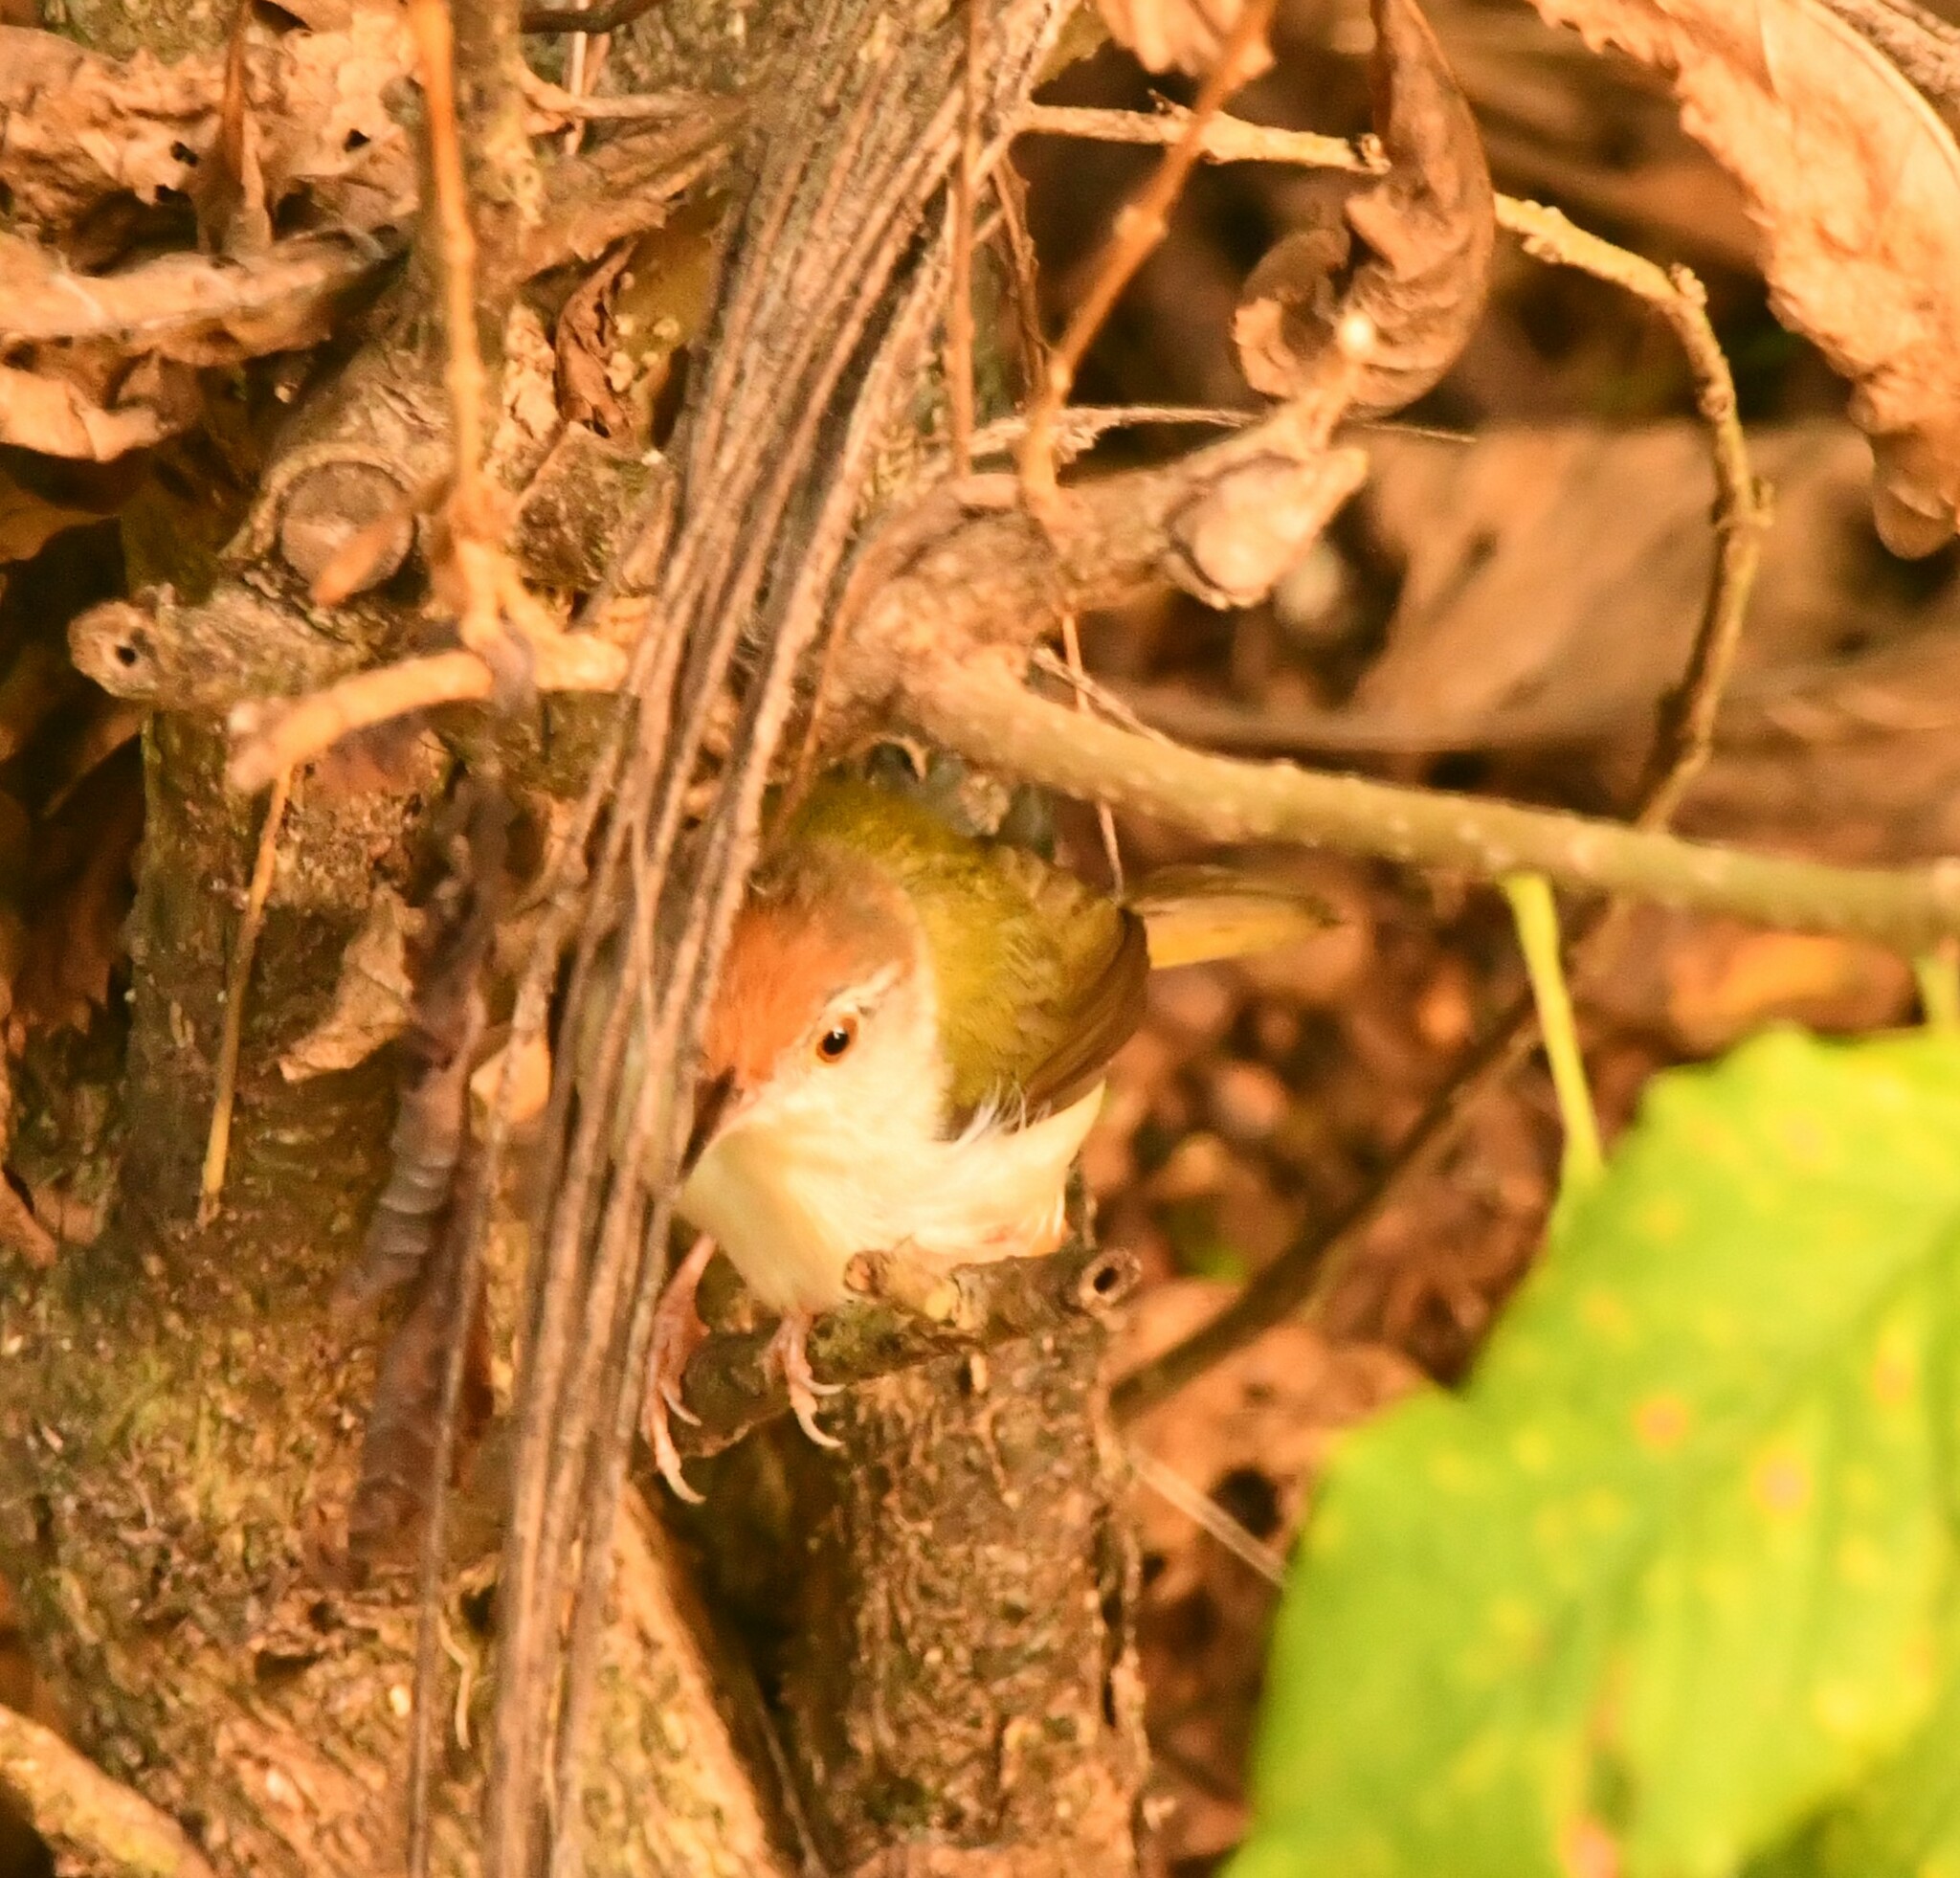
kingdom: Animalia
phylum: Chordata
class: Aves
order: Passeriformes
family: Cisticolidae
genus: Orthotomus
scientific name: Orthotomus sutorius
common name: Common tailorbird
